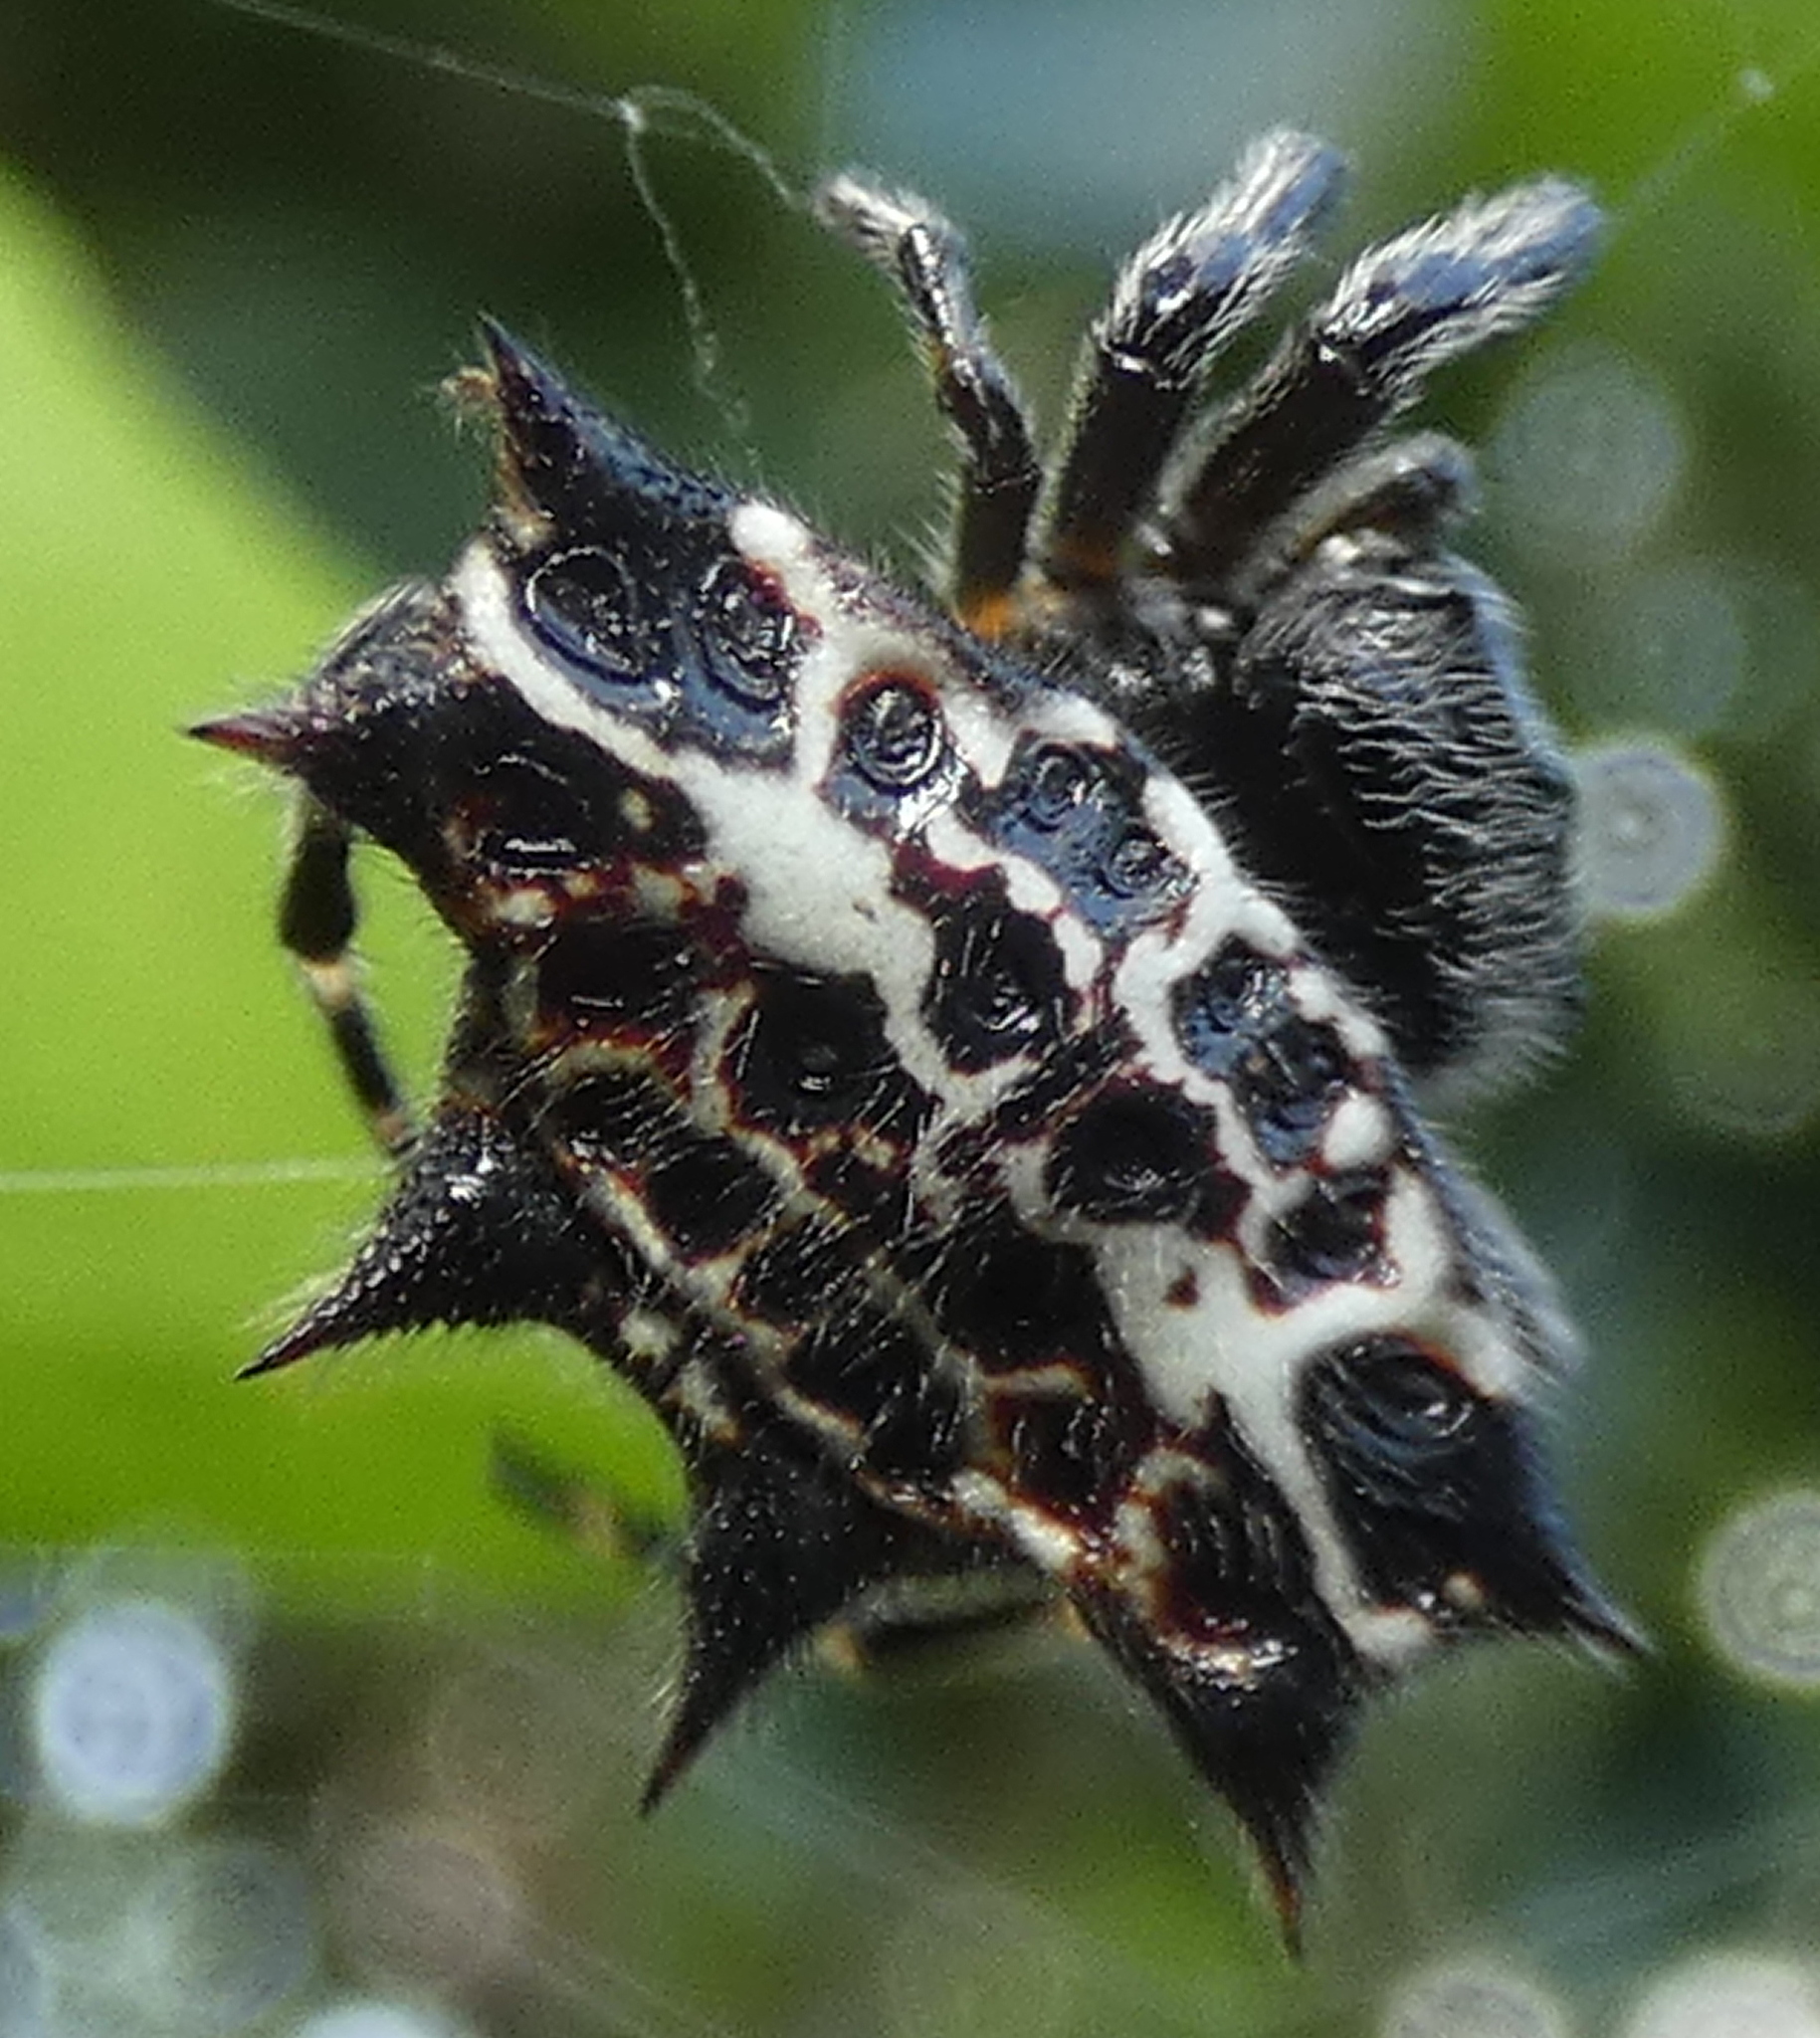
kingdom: Animalia
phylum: Arthropoda
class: Arachnida
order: Araneae
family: Araneidae
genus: Gasteracantha
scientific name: Gasteracantha cancriformis
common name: Orb weavers
